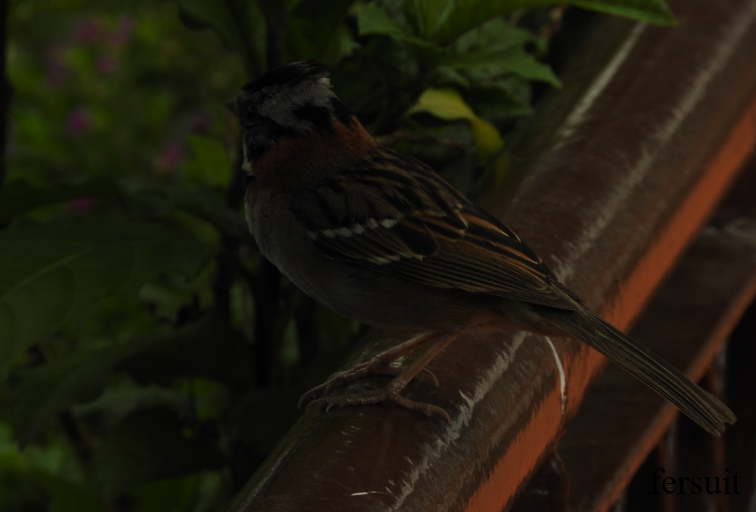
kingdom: Animalia
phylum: Chordata
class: Aves
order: Passeriformes
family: Passerellidae
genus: Zonotrichia
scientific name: Zonotrichia capensis
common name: Rufous-collared sparrow
